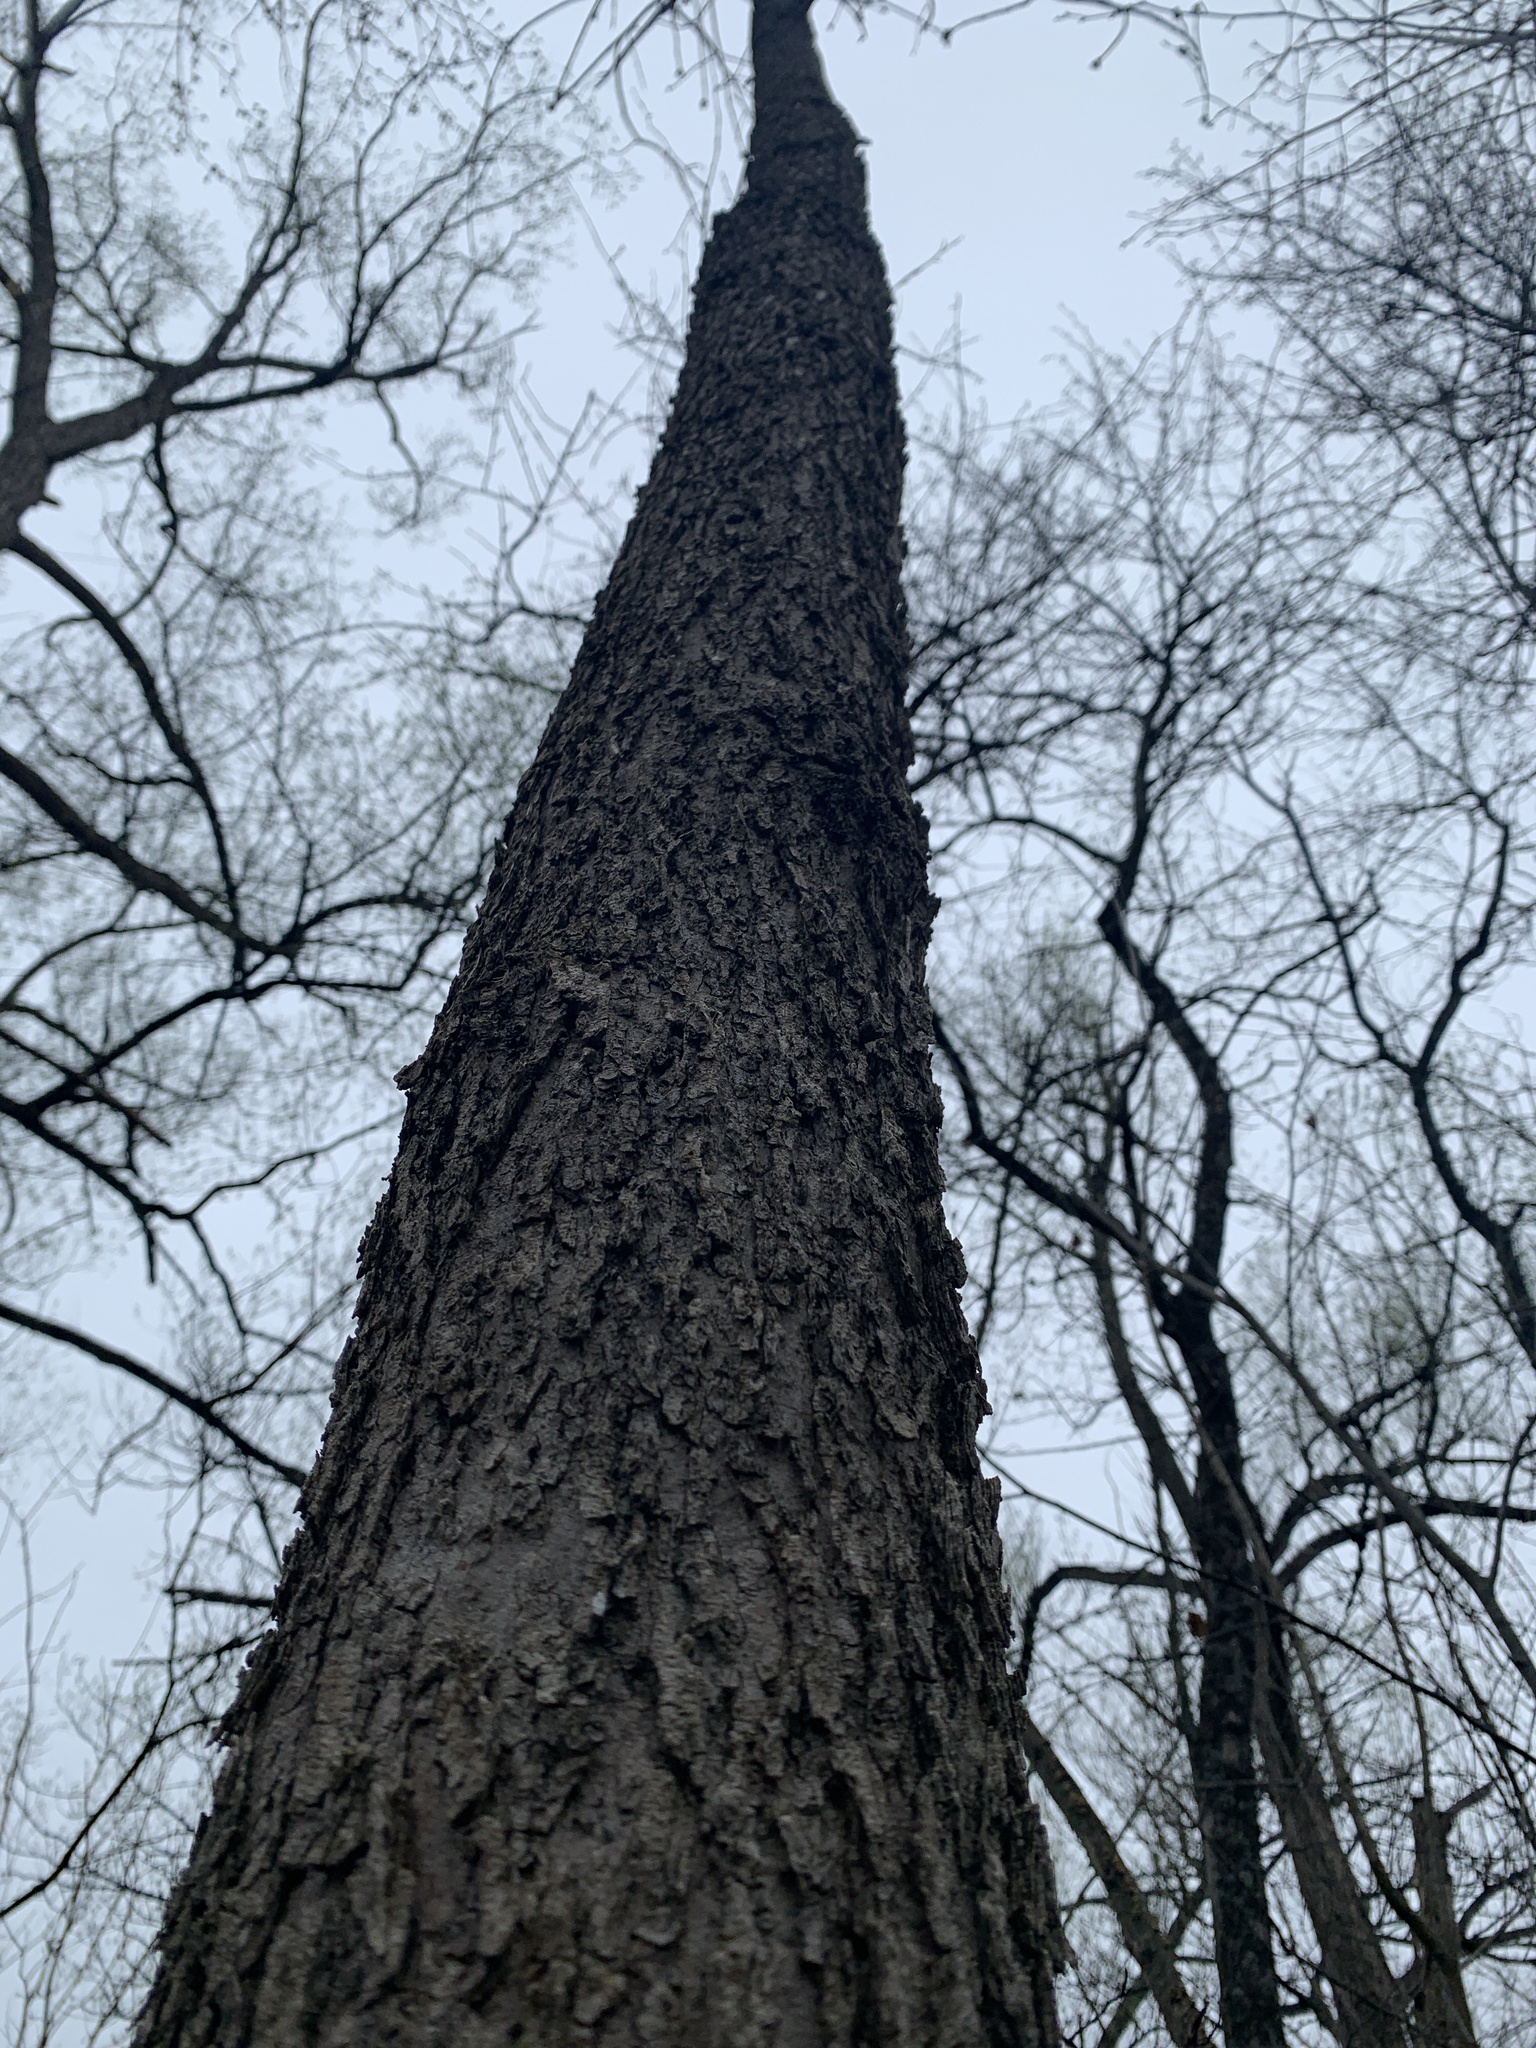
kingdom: Plantae
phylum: Tracheophyta
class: Magnoliopsida
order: Lamiales
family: Oleaceae
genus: Fraxinus
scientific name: Fraxinus nigra
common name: Black ash
